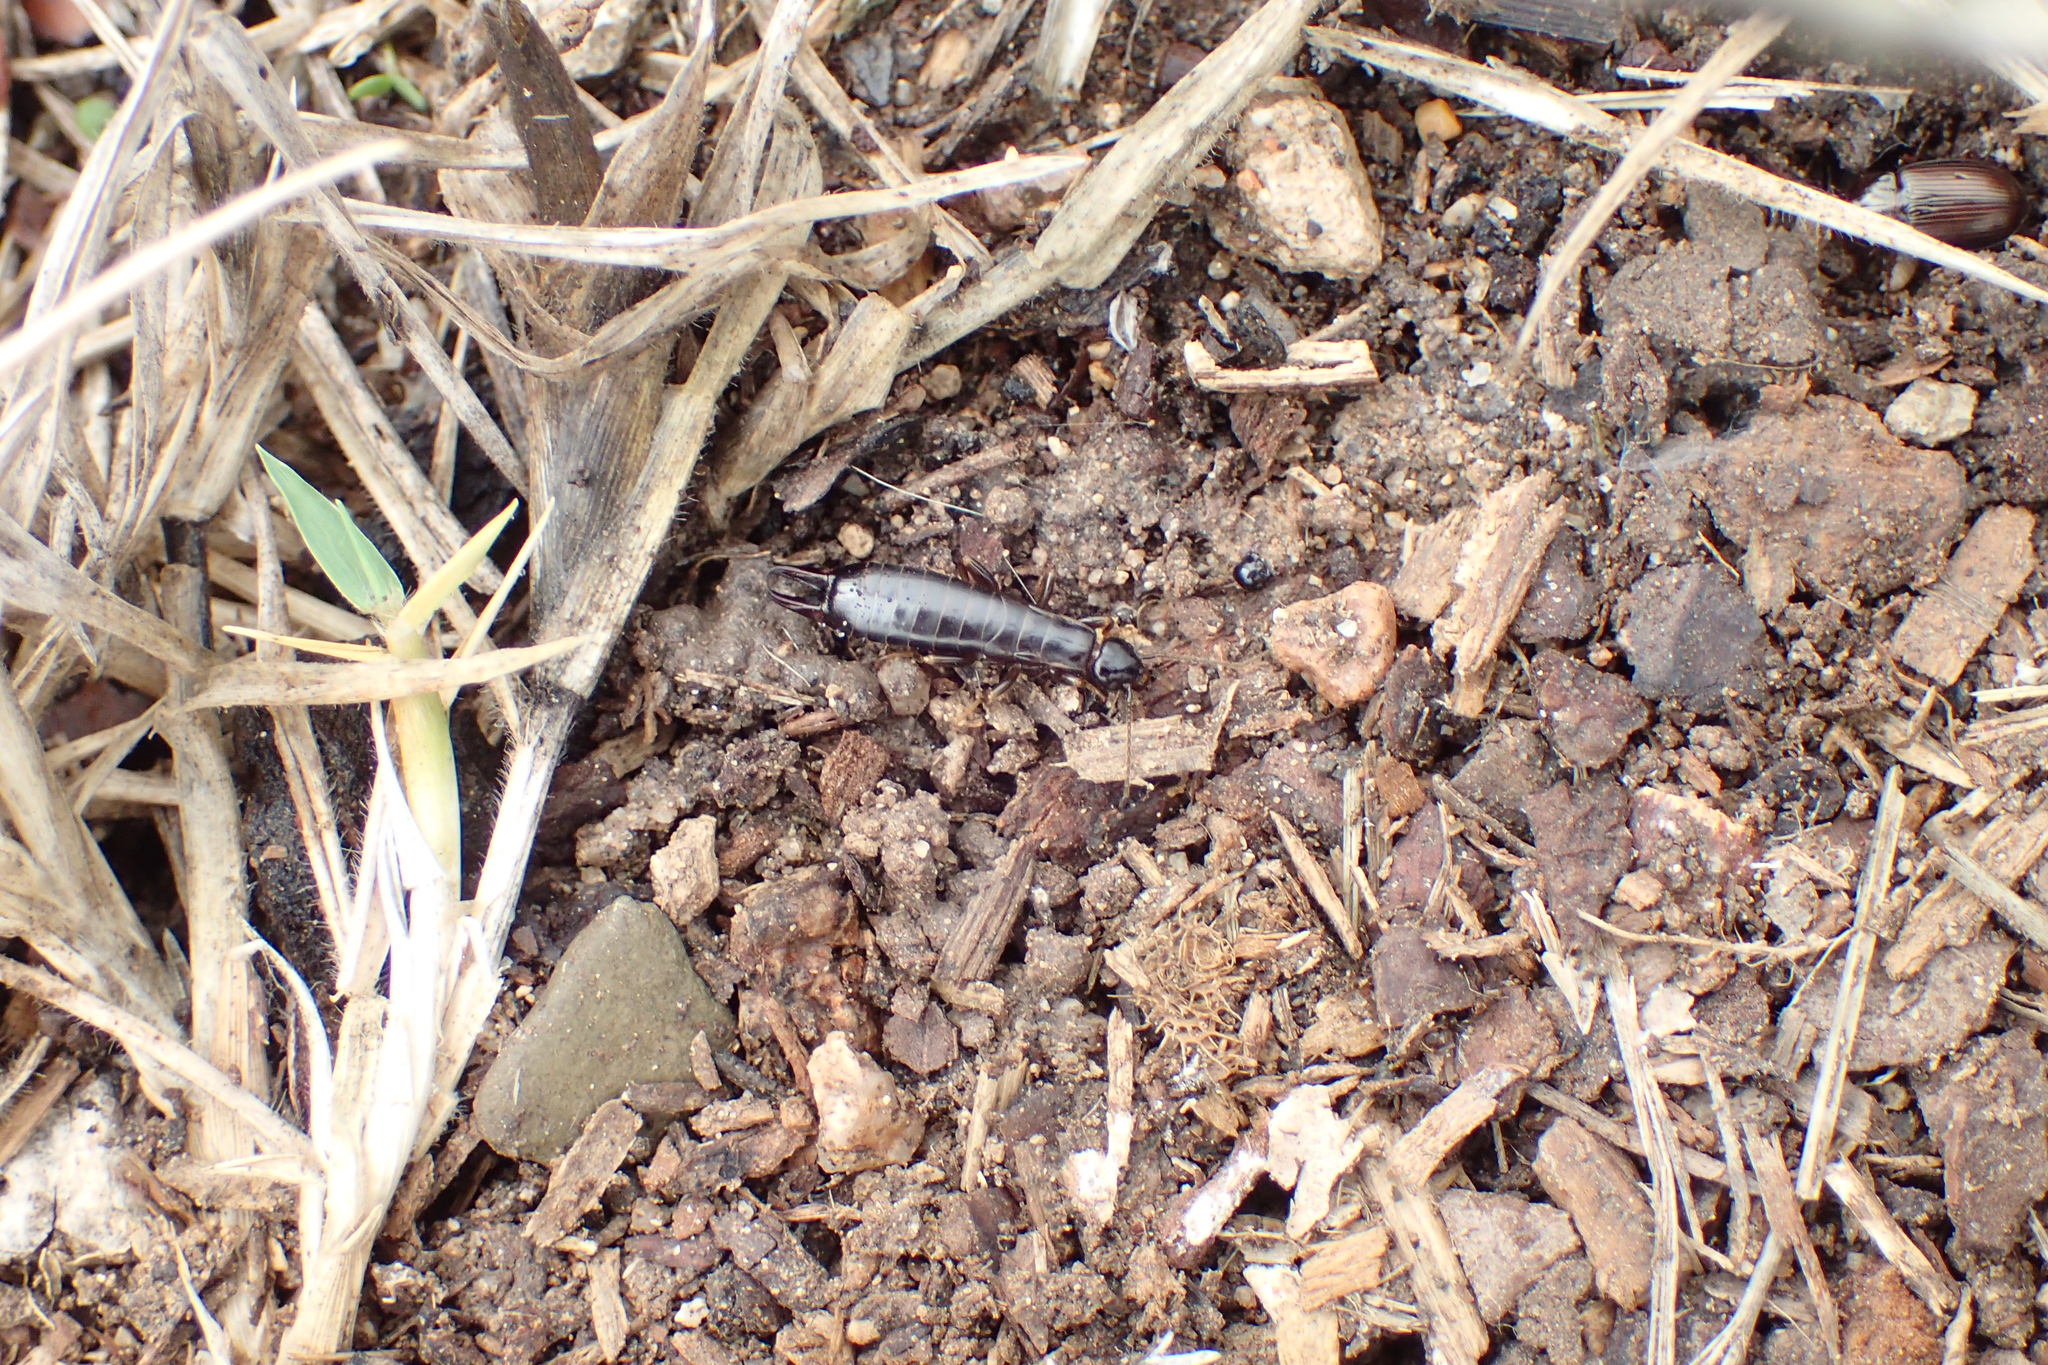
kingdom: Animalia
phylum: Arthropoda
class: Insecta
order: Dermaptera
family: Anisolabididae
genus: Euborellia
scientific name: Euborellia moesta
